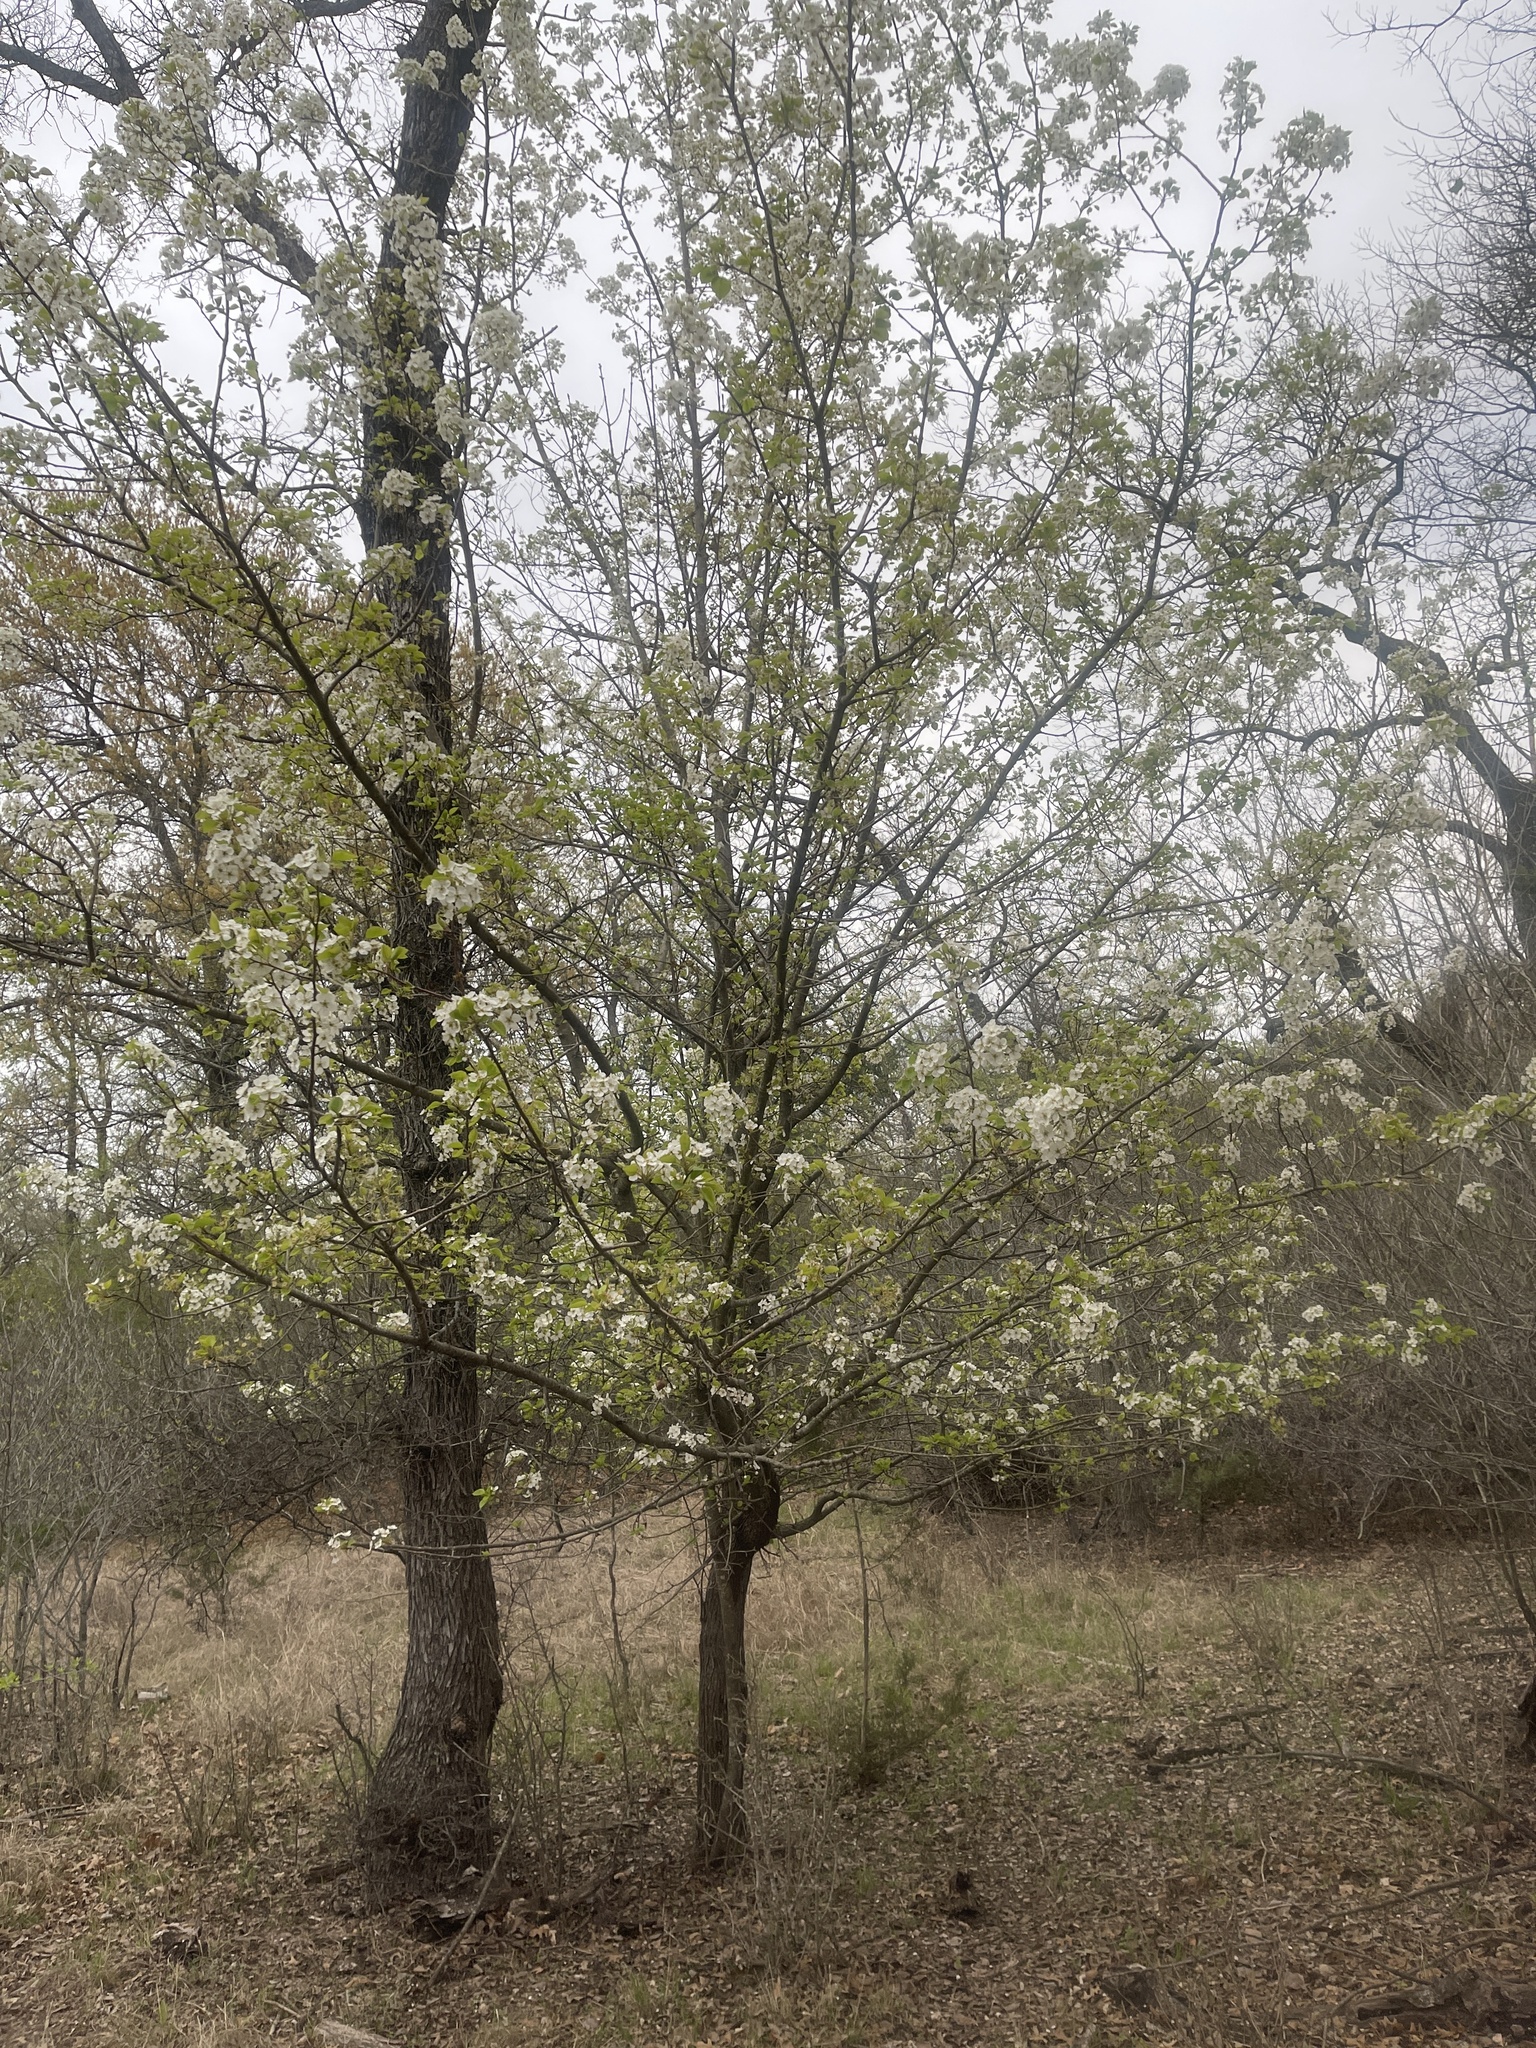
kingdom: Plantae
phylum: Tracheophyta
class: Magnoliopsida
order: Rosales
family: Rosaceae
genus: Pyrus
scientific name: Pyrus calleryana
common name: Callery pear
